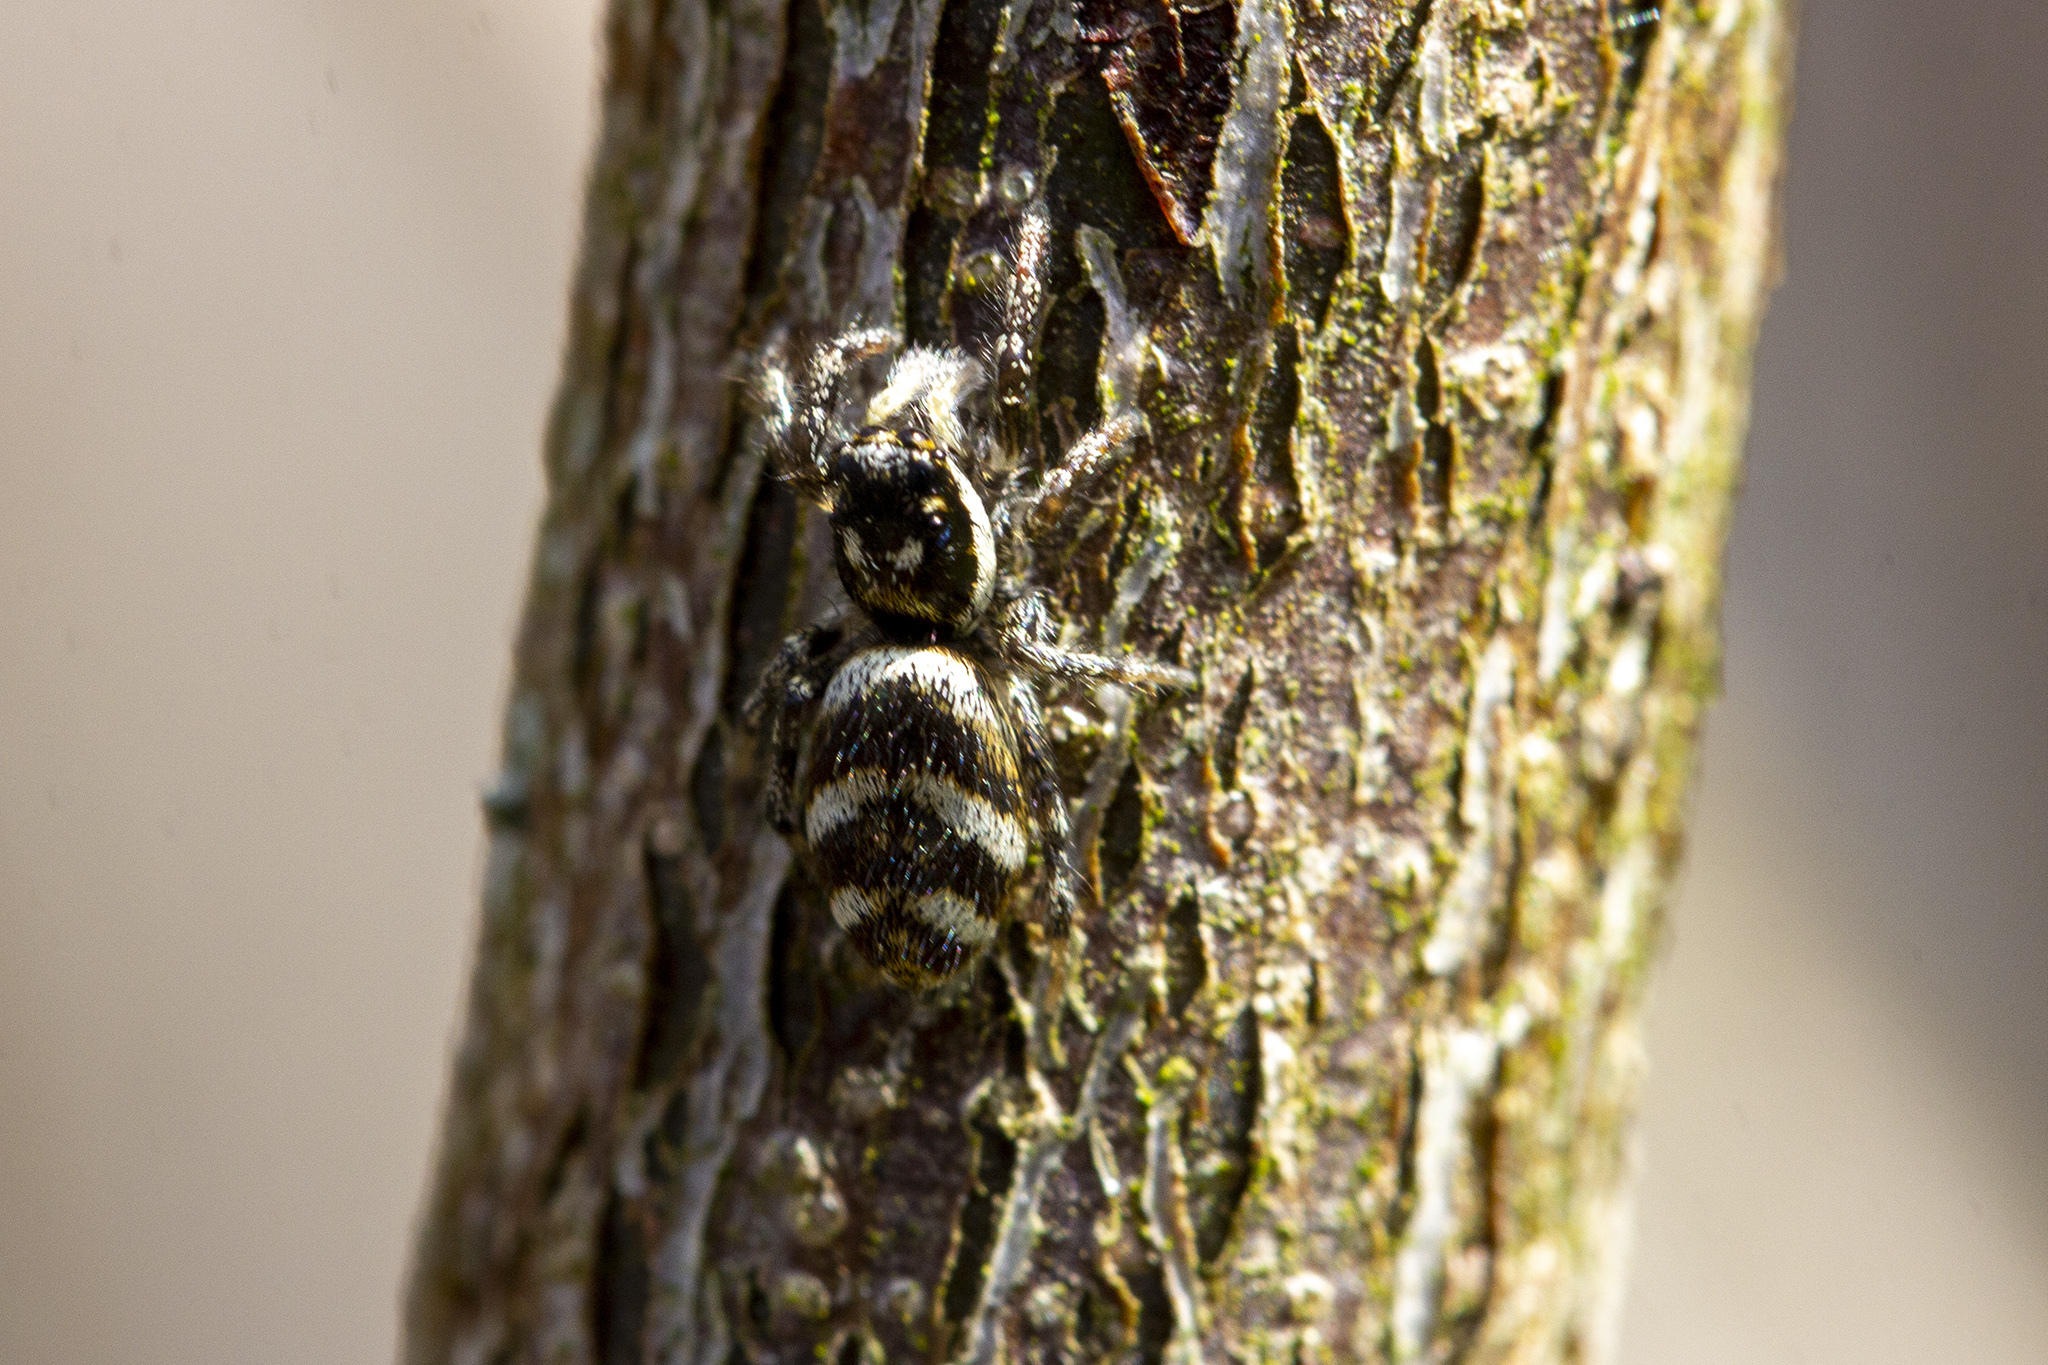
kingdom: Animalia
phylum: Arthropoda
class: Arachnida
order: Araneae
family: Salticidae
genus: Salticus
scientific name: Salticus scenicus
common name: Zebra jumper
